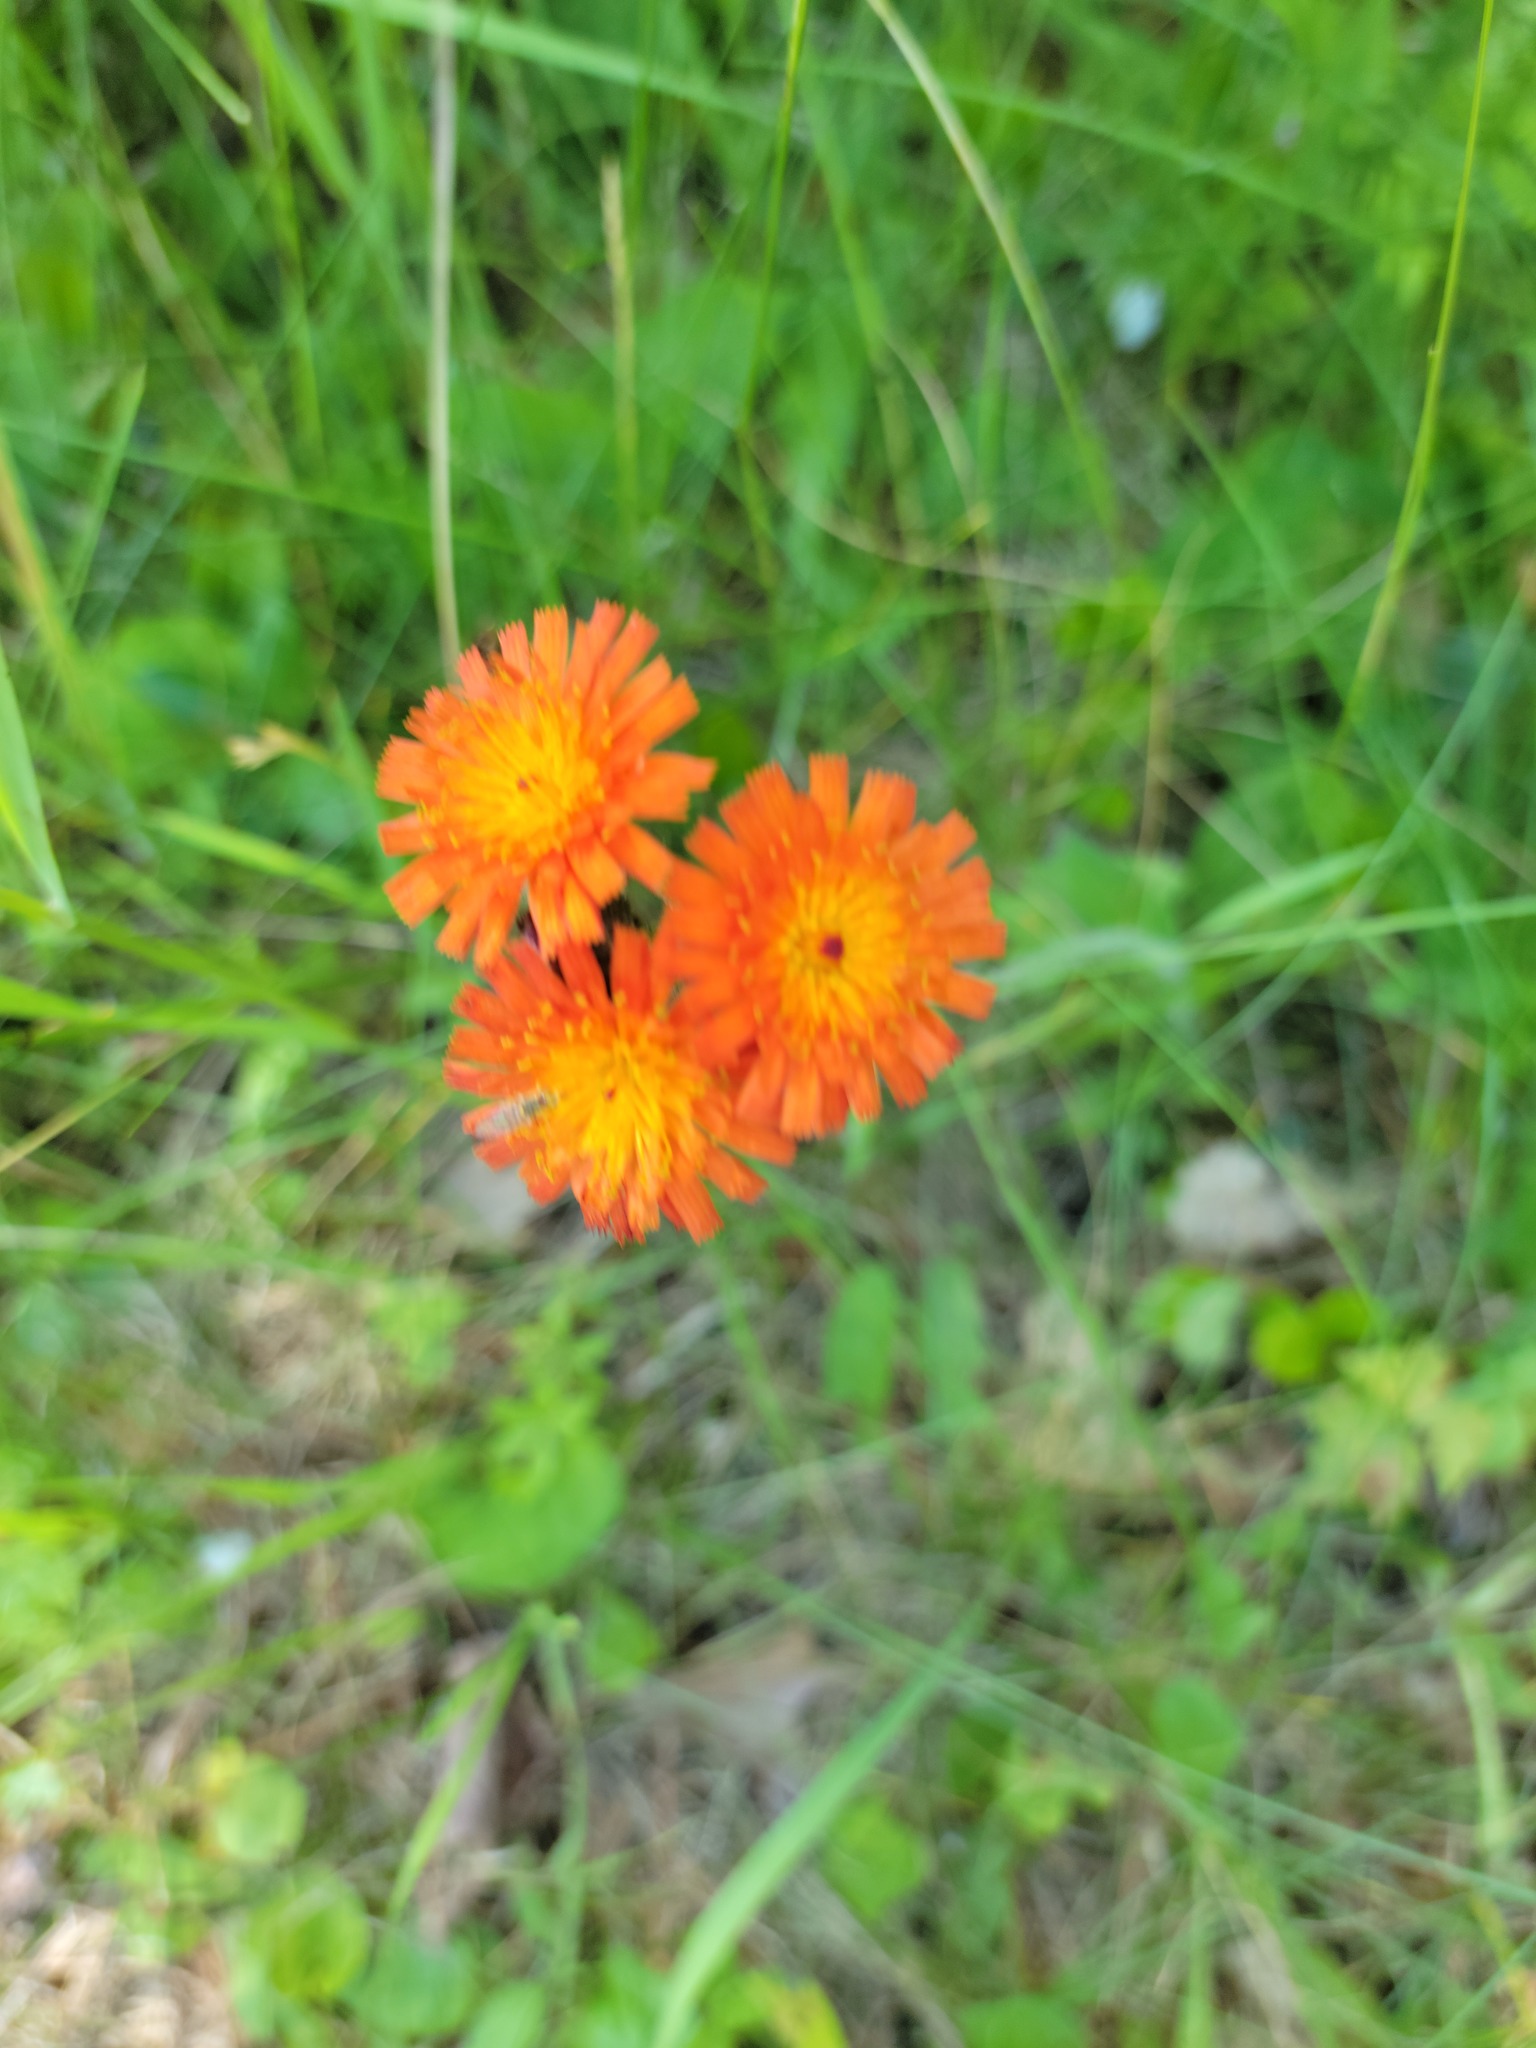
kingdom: Plantae
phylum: Tracheophyta
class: Magnoliopsida
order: Asterales
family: Asteraceae
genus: Pilosella
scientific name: Pilosella aurantiaca
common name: Fox-and-cubs
